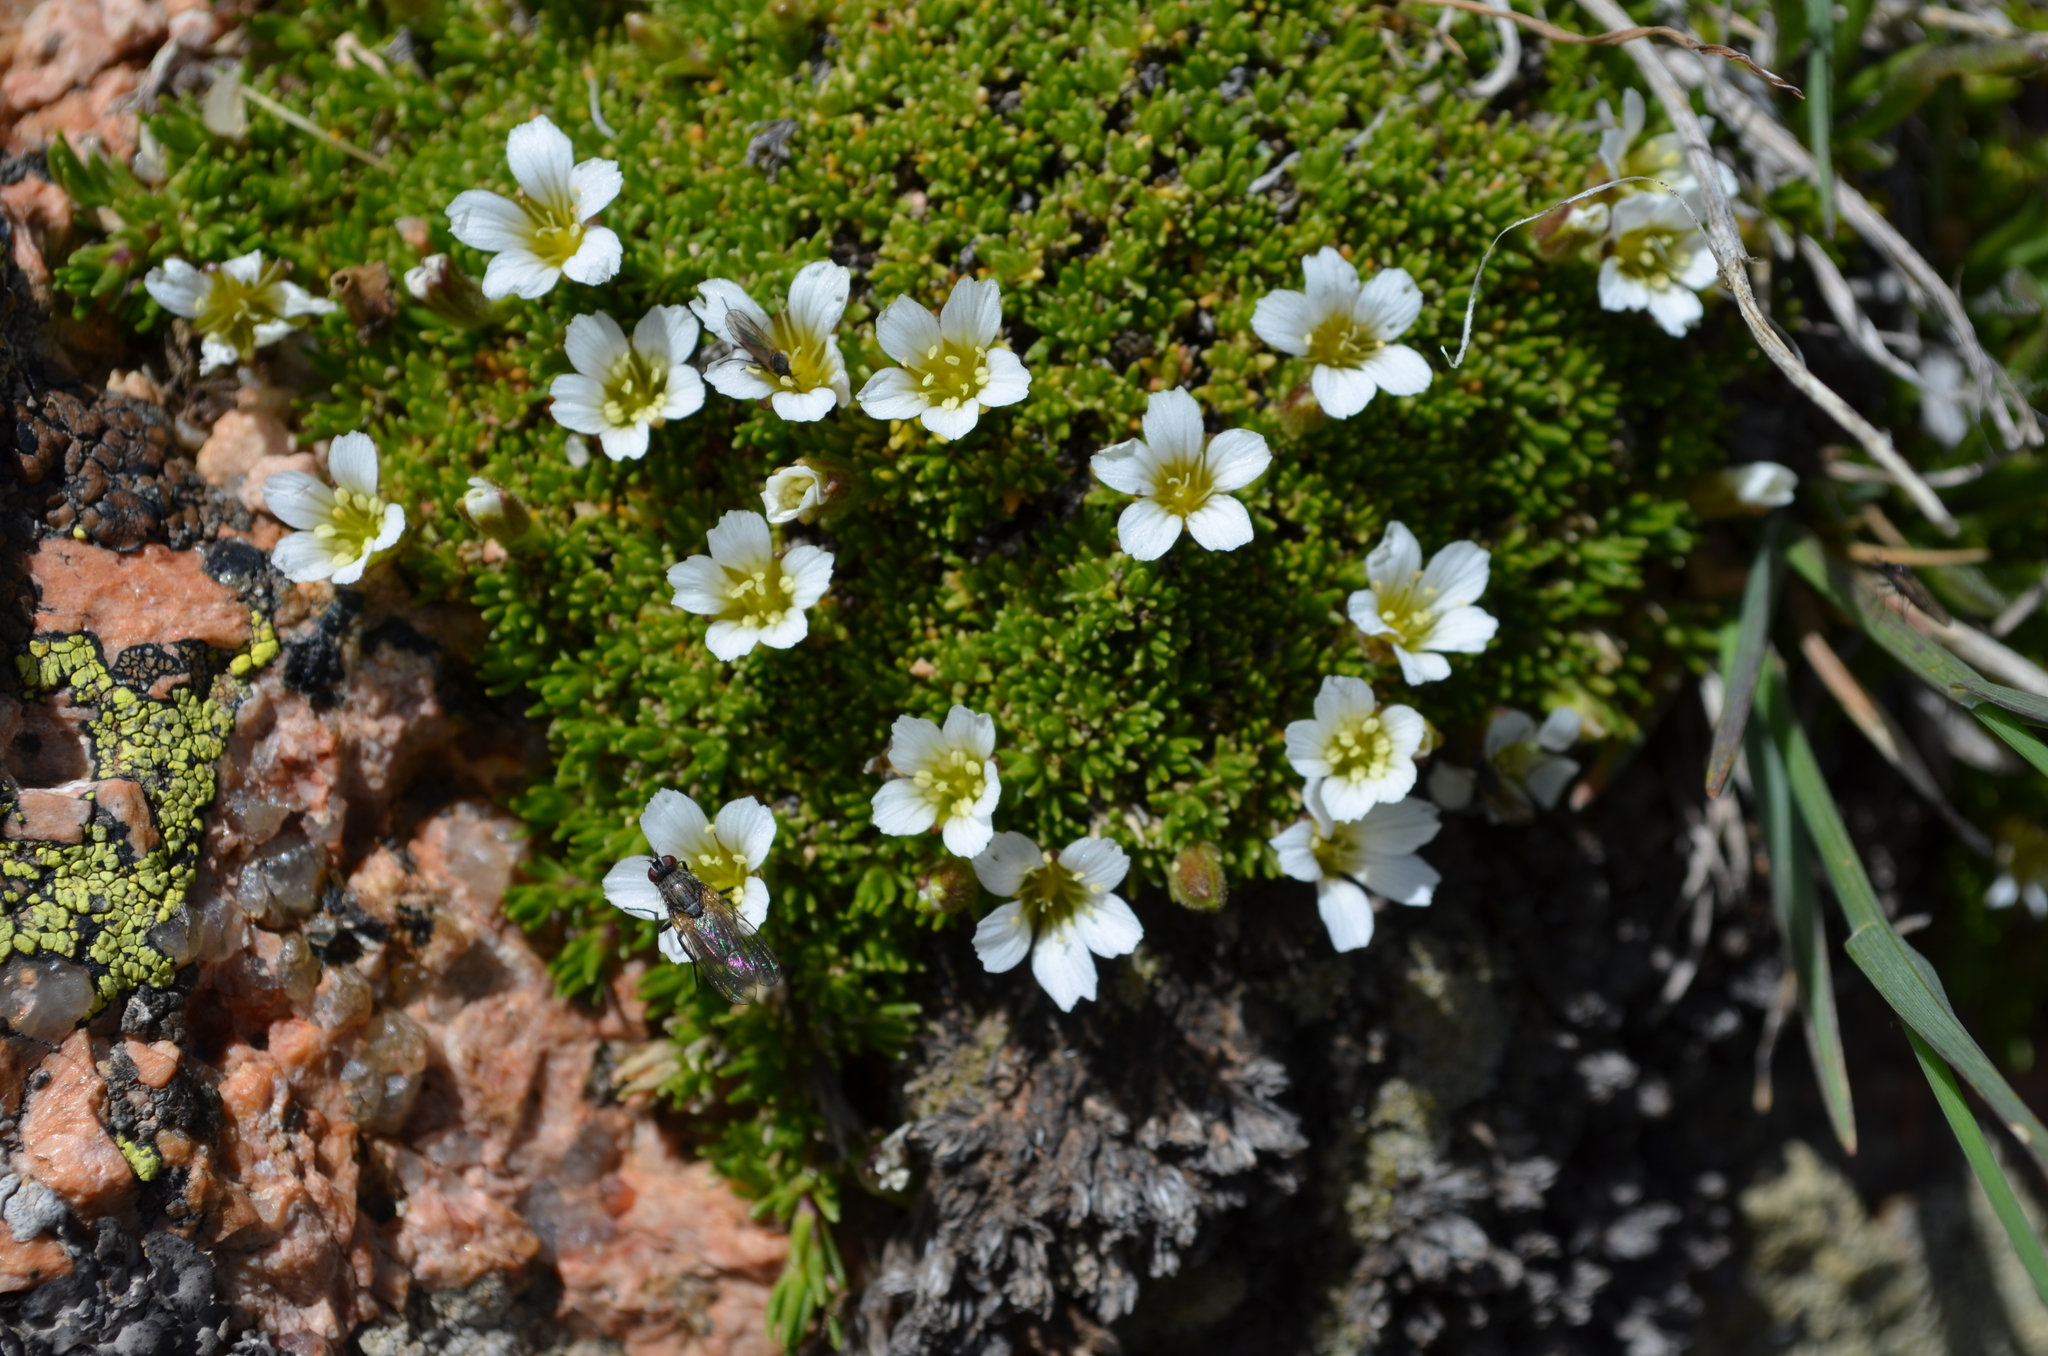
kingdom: Plantae
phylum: Tracheophyta
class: Magnoliopsida
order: Caryophyllales
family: Caryophyllaceae
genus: Cherleria
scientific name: Cherleria obtusiloba
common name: Alpine stitchwort
